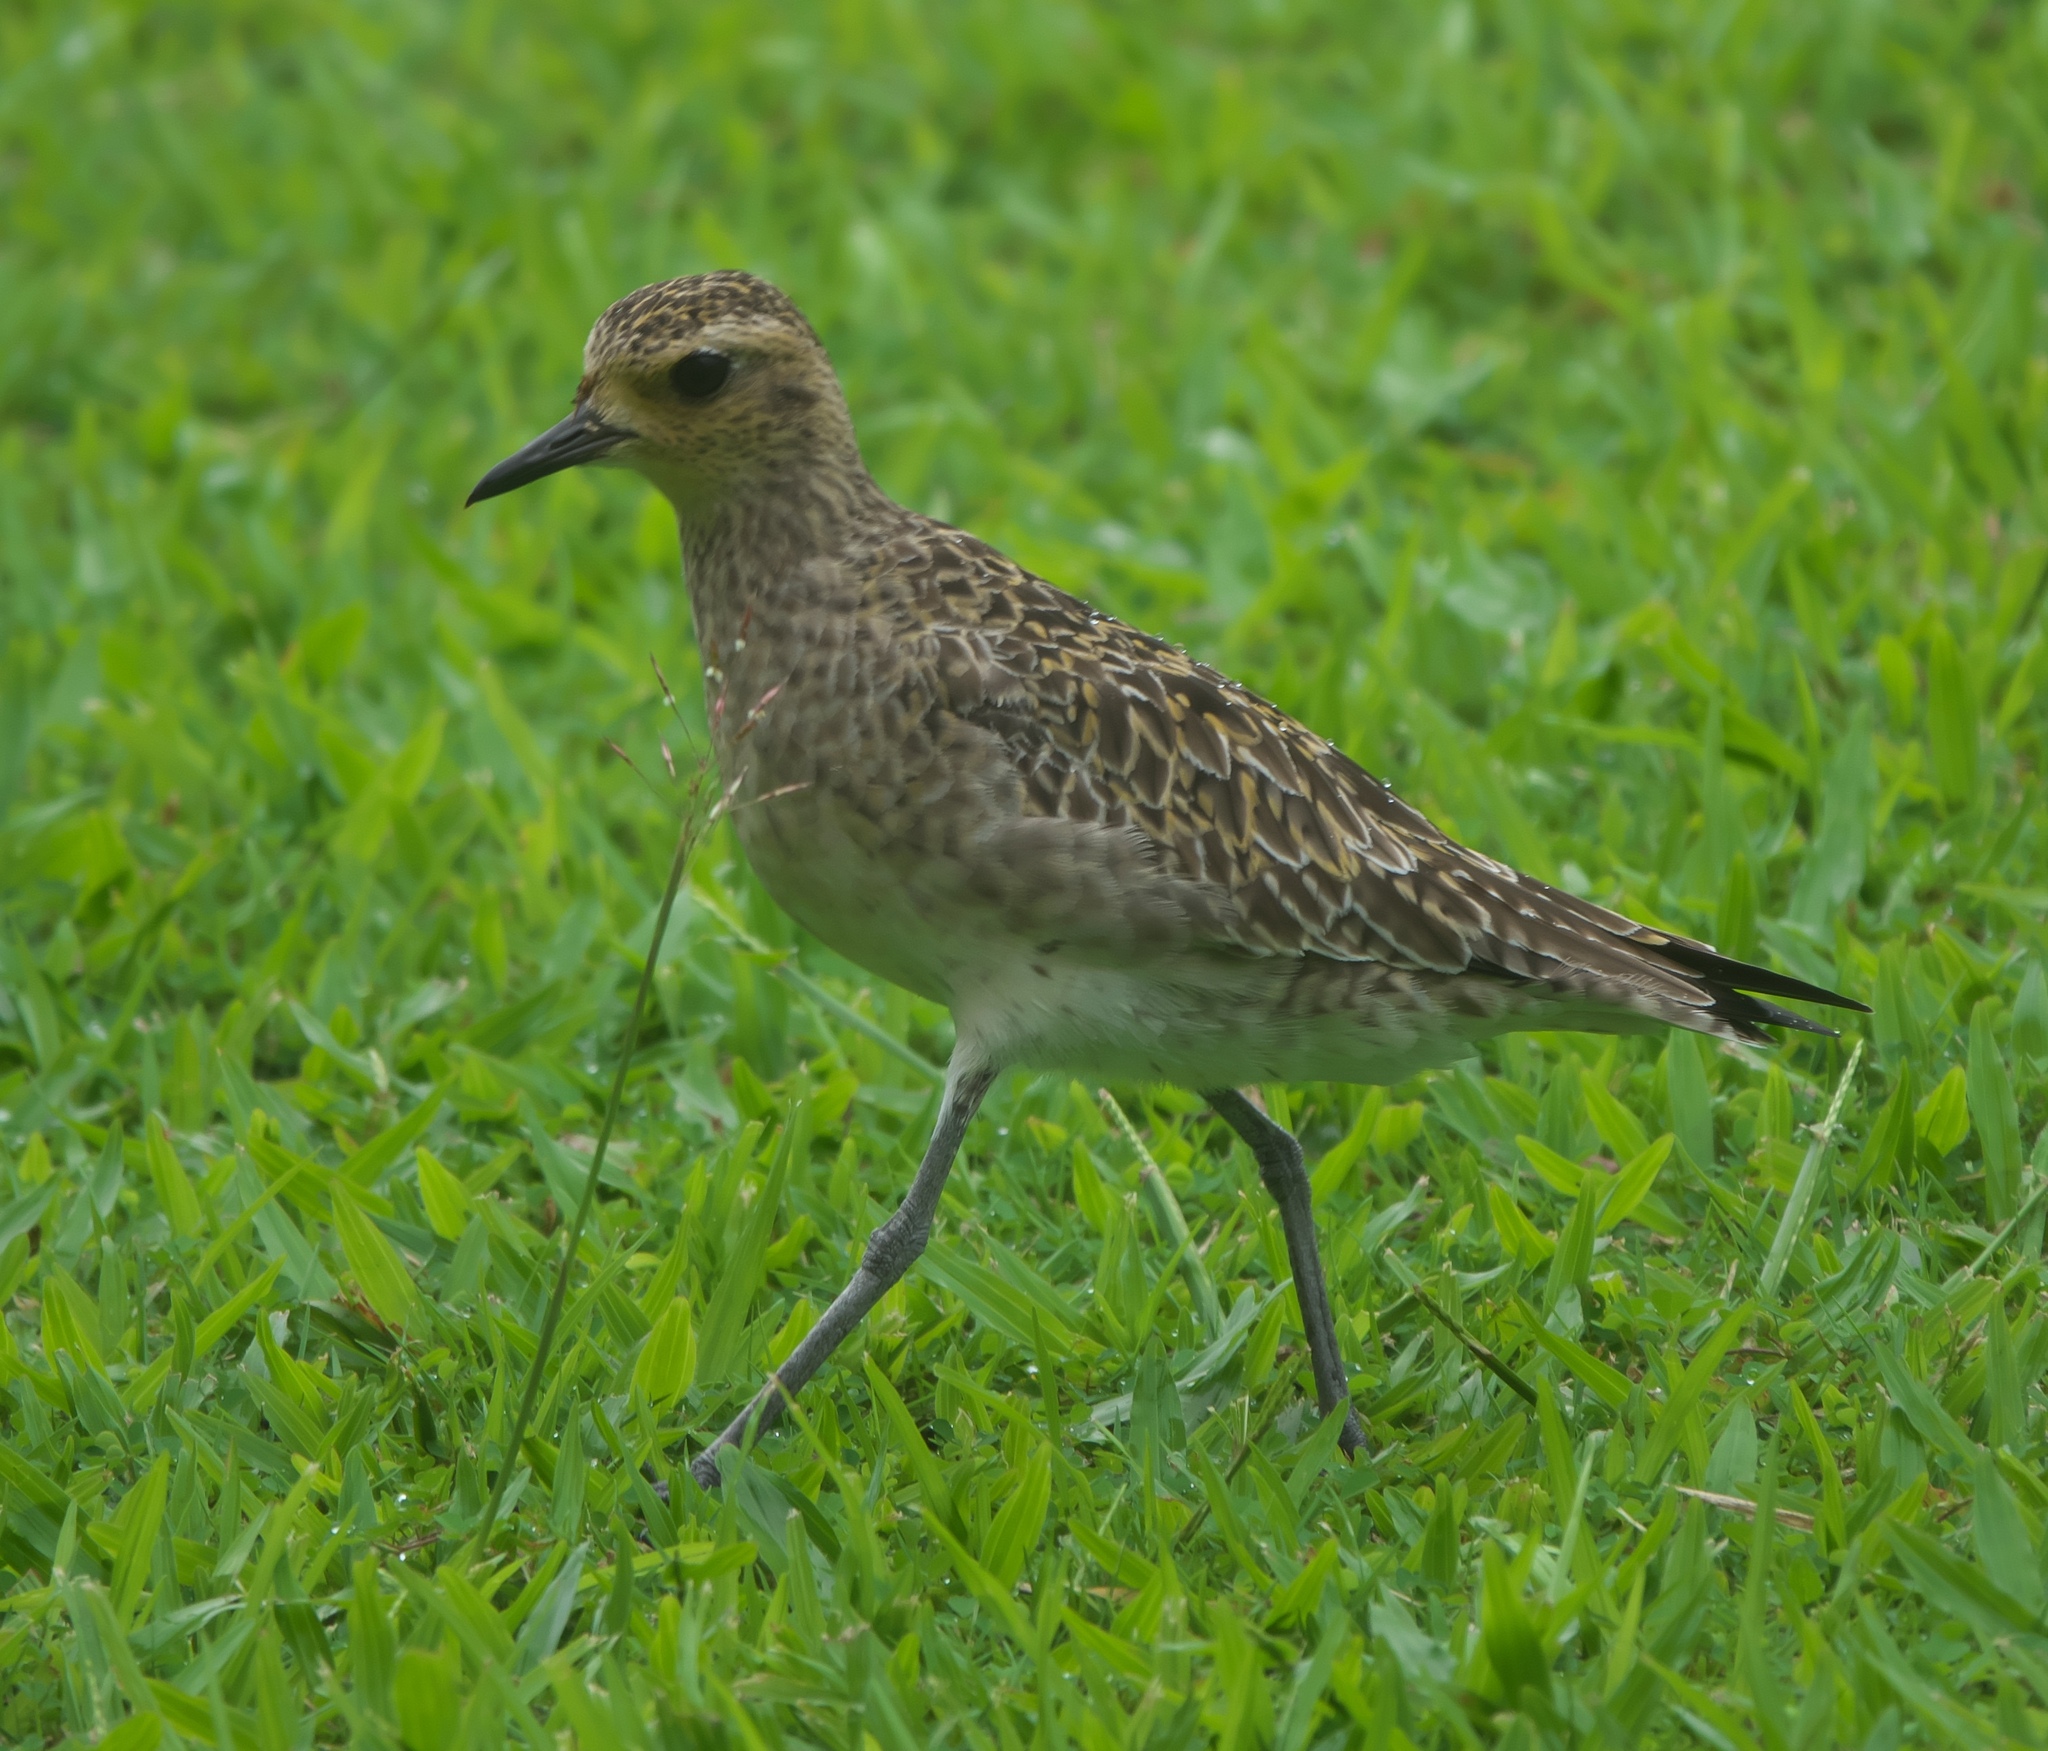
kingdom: Animalia
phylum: Chordata
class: Aves
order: Charadriiformes
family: Charadriidae
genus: Pluvialis
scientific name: Pluvialis fulva
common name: Pacific golden plover
